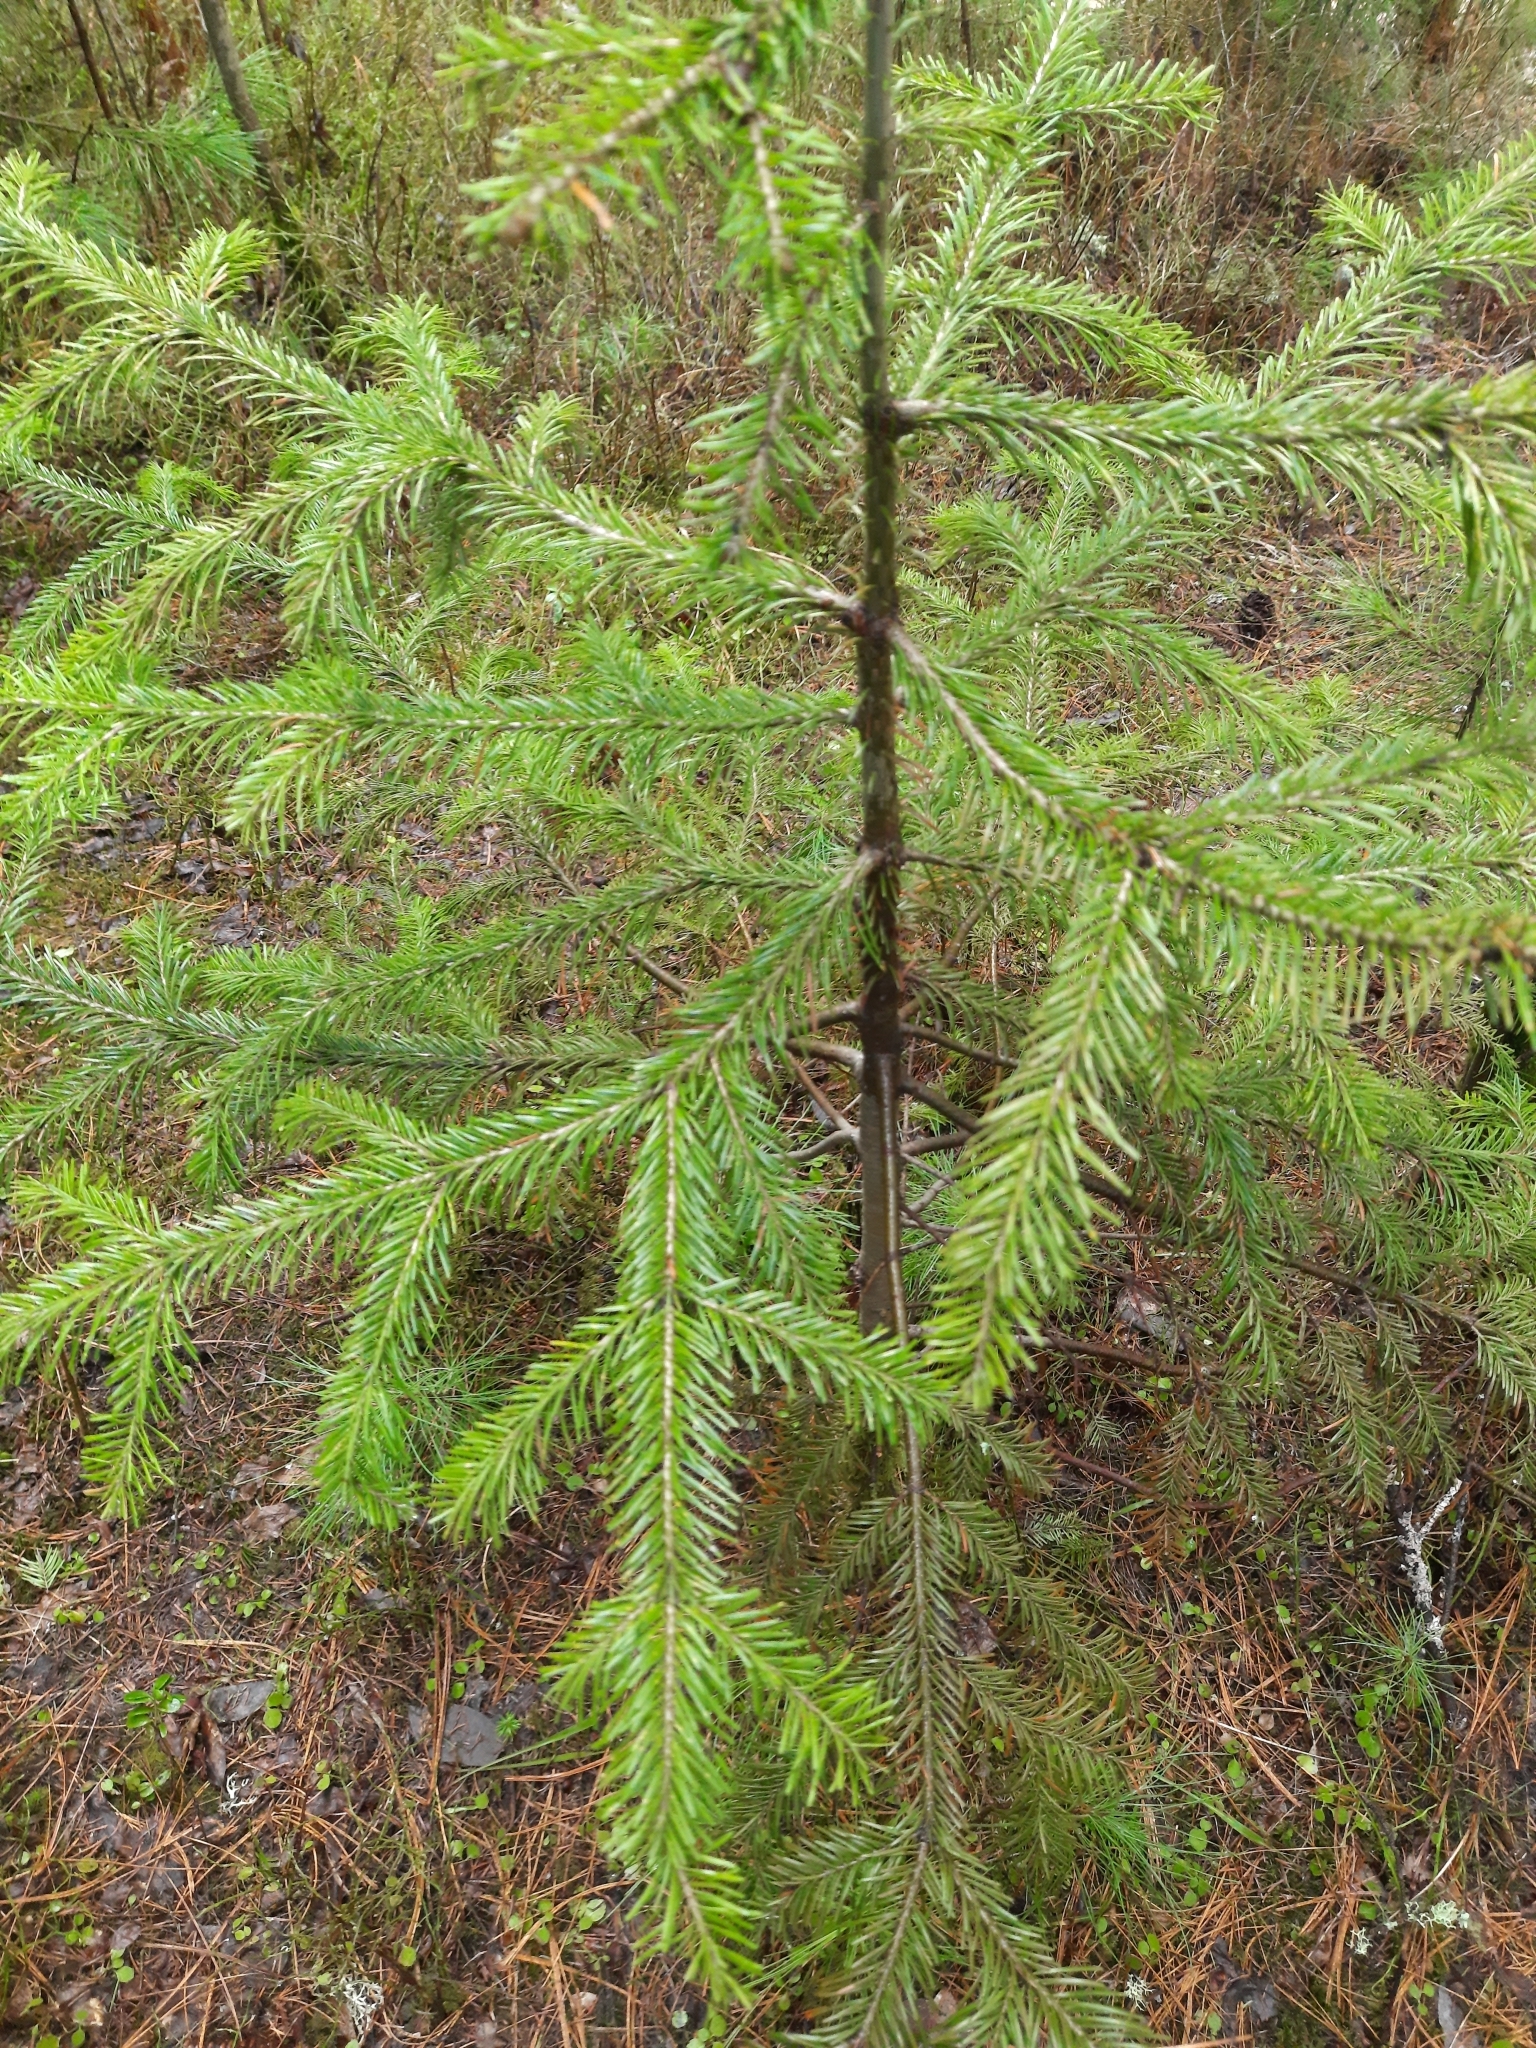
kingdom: Plantae
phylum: Tracheophyta
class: Pinopsida
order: Pinales
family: Pinaceae
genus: Abies
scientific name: Abies sibirica
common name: Siberian fir
